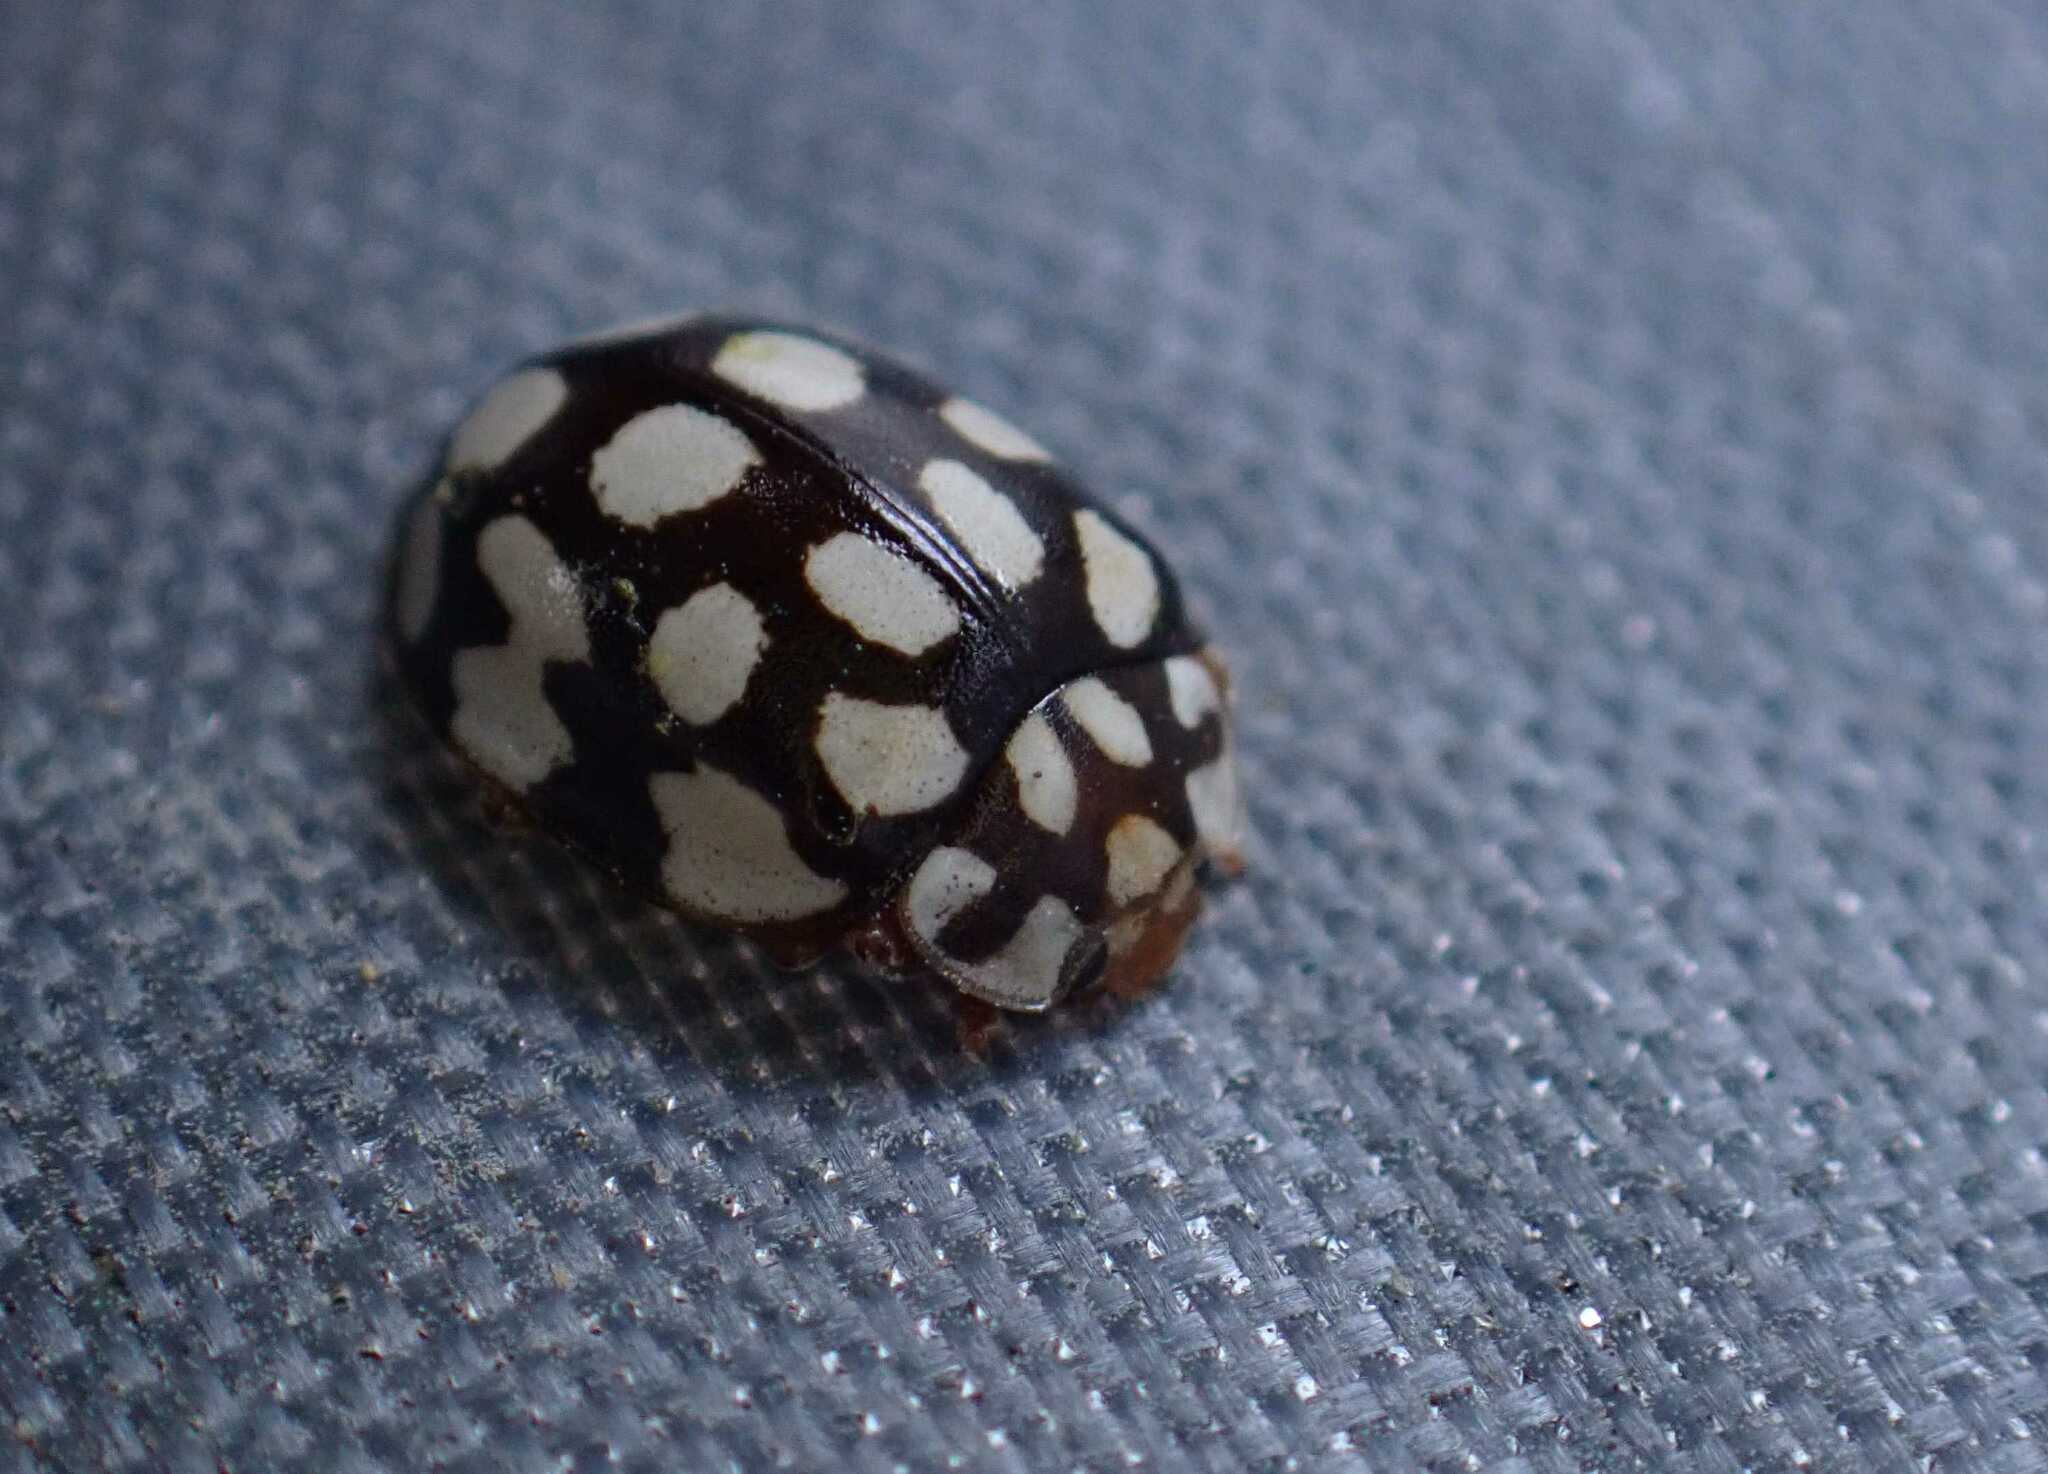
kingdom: Animalia
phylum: Arthropoda
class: Insecta
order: Coleoptera
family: Coccinellidae
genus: Sospita
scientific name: Sospita vigintiguttata
